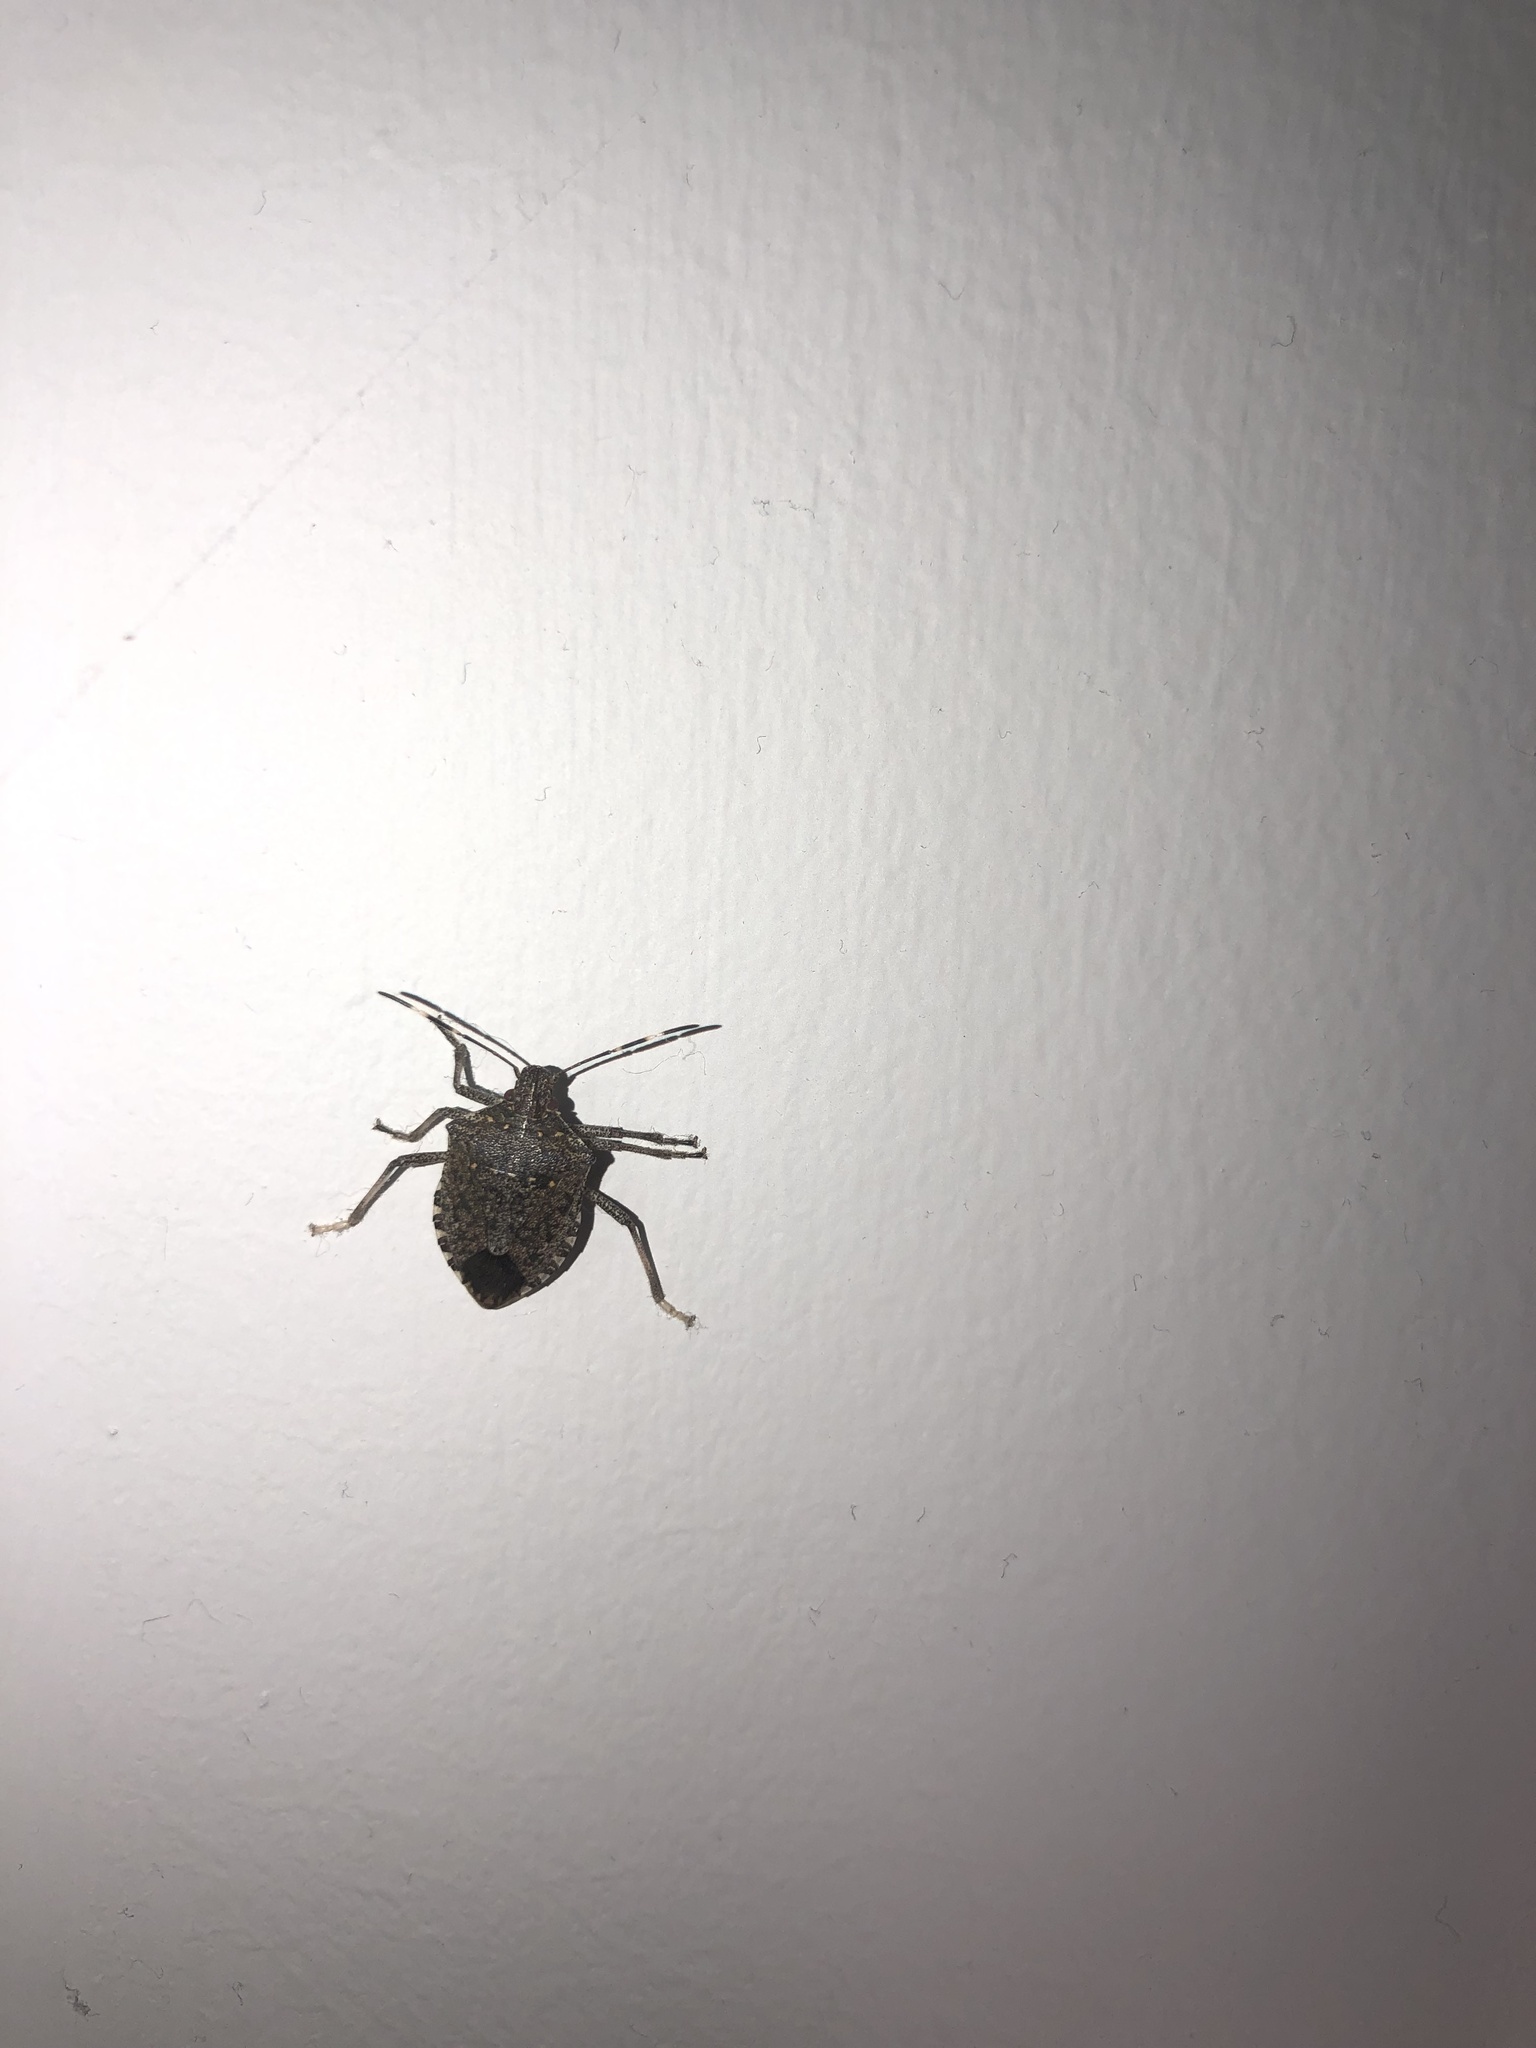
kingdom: Animalia
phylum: Arthropoda
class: Insecta
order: Hemiptera
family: Pentatomidae
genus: Halyomorpha
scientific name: Halyomorpha halys
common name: Brown marmorated stink bug
